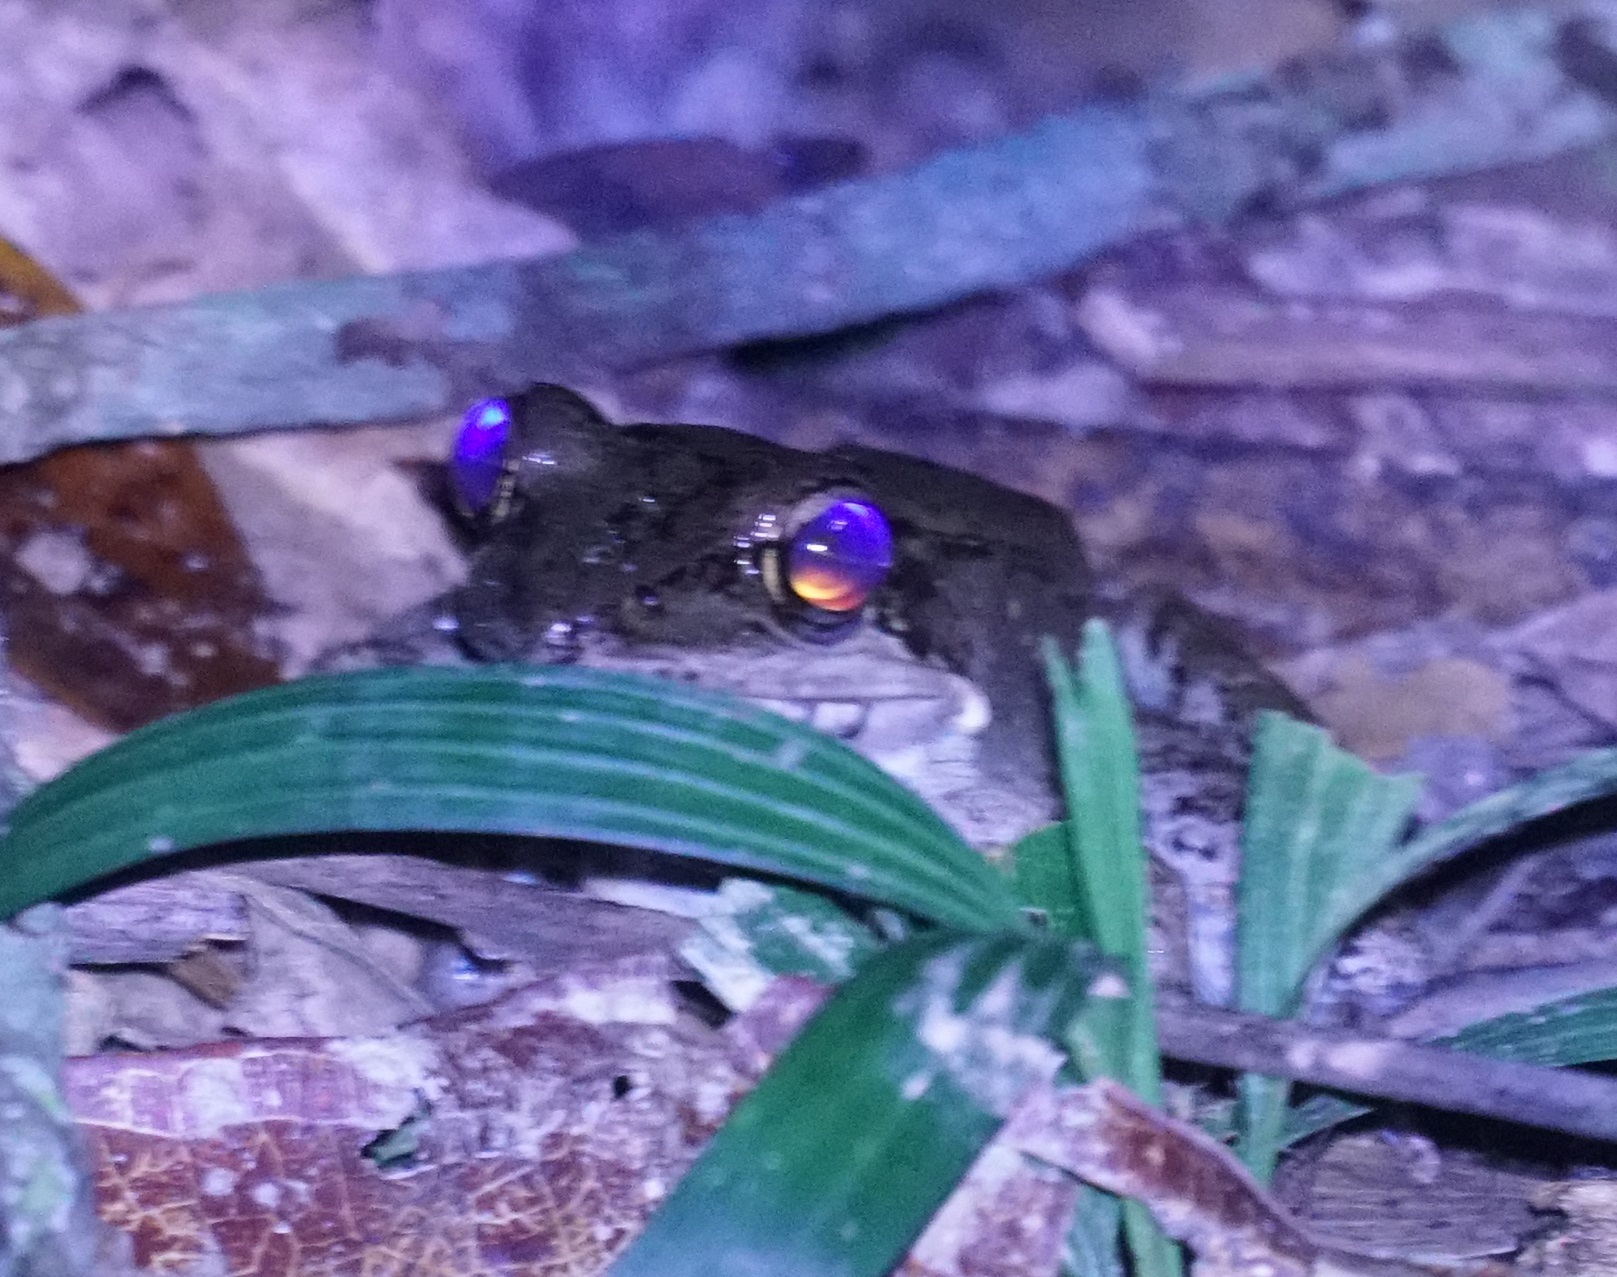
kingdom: Animalia
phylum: Chordata
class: Amphibia
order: Anura
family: Ranidae
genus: Papurana
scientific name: Papurana daemeli
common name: Arhem rana
